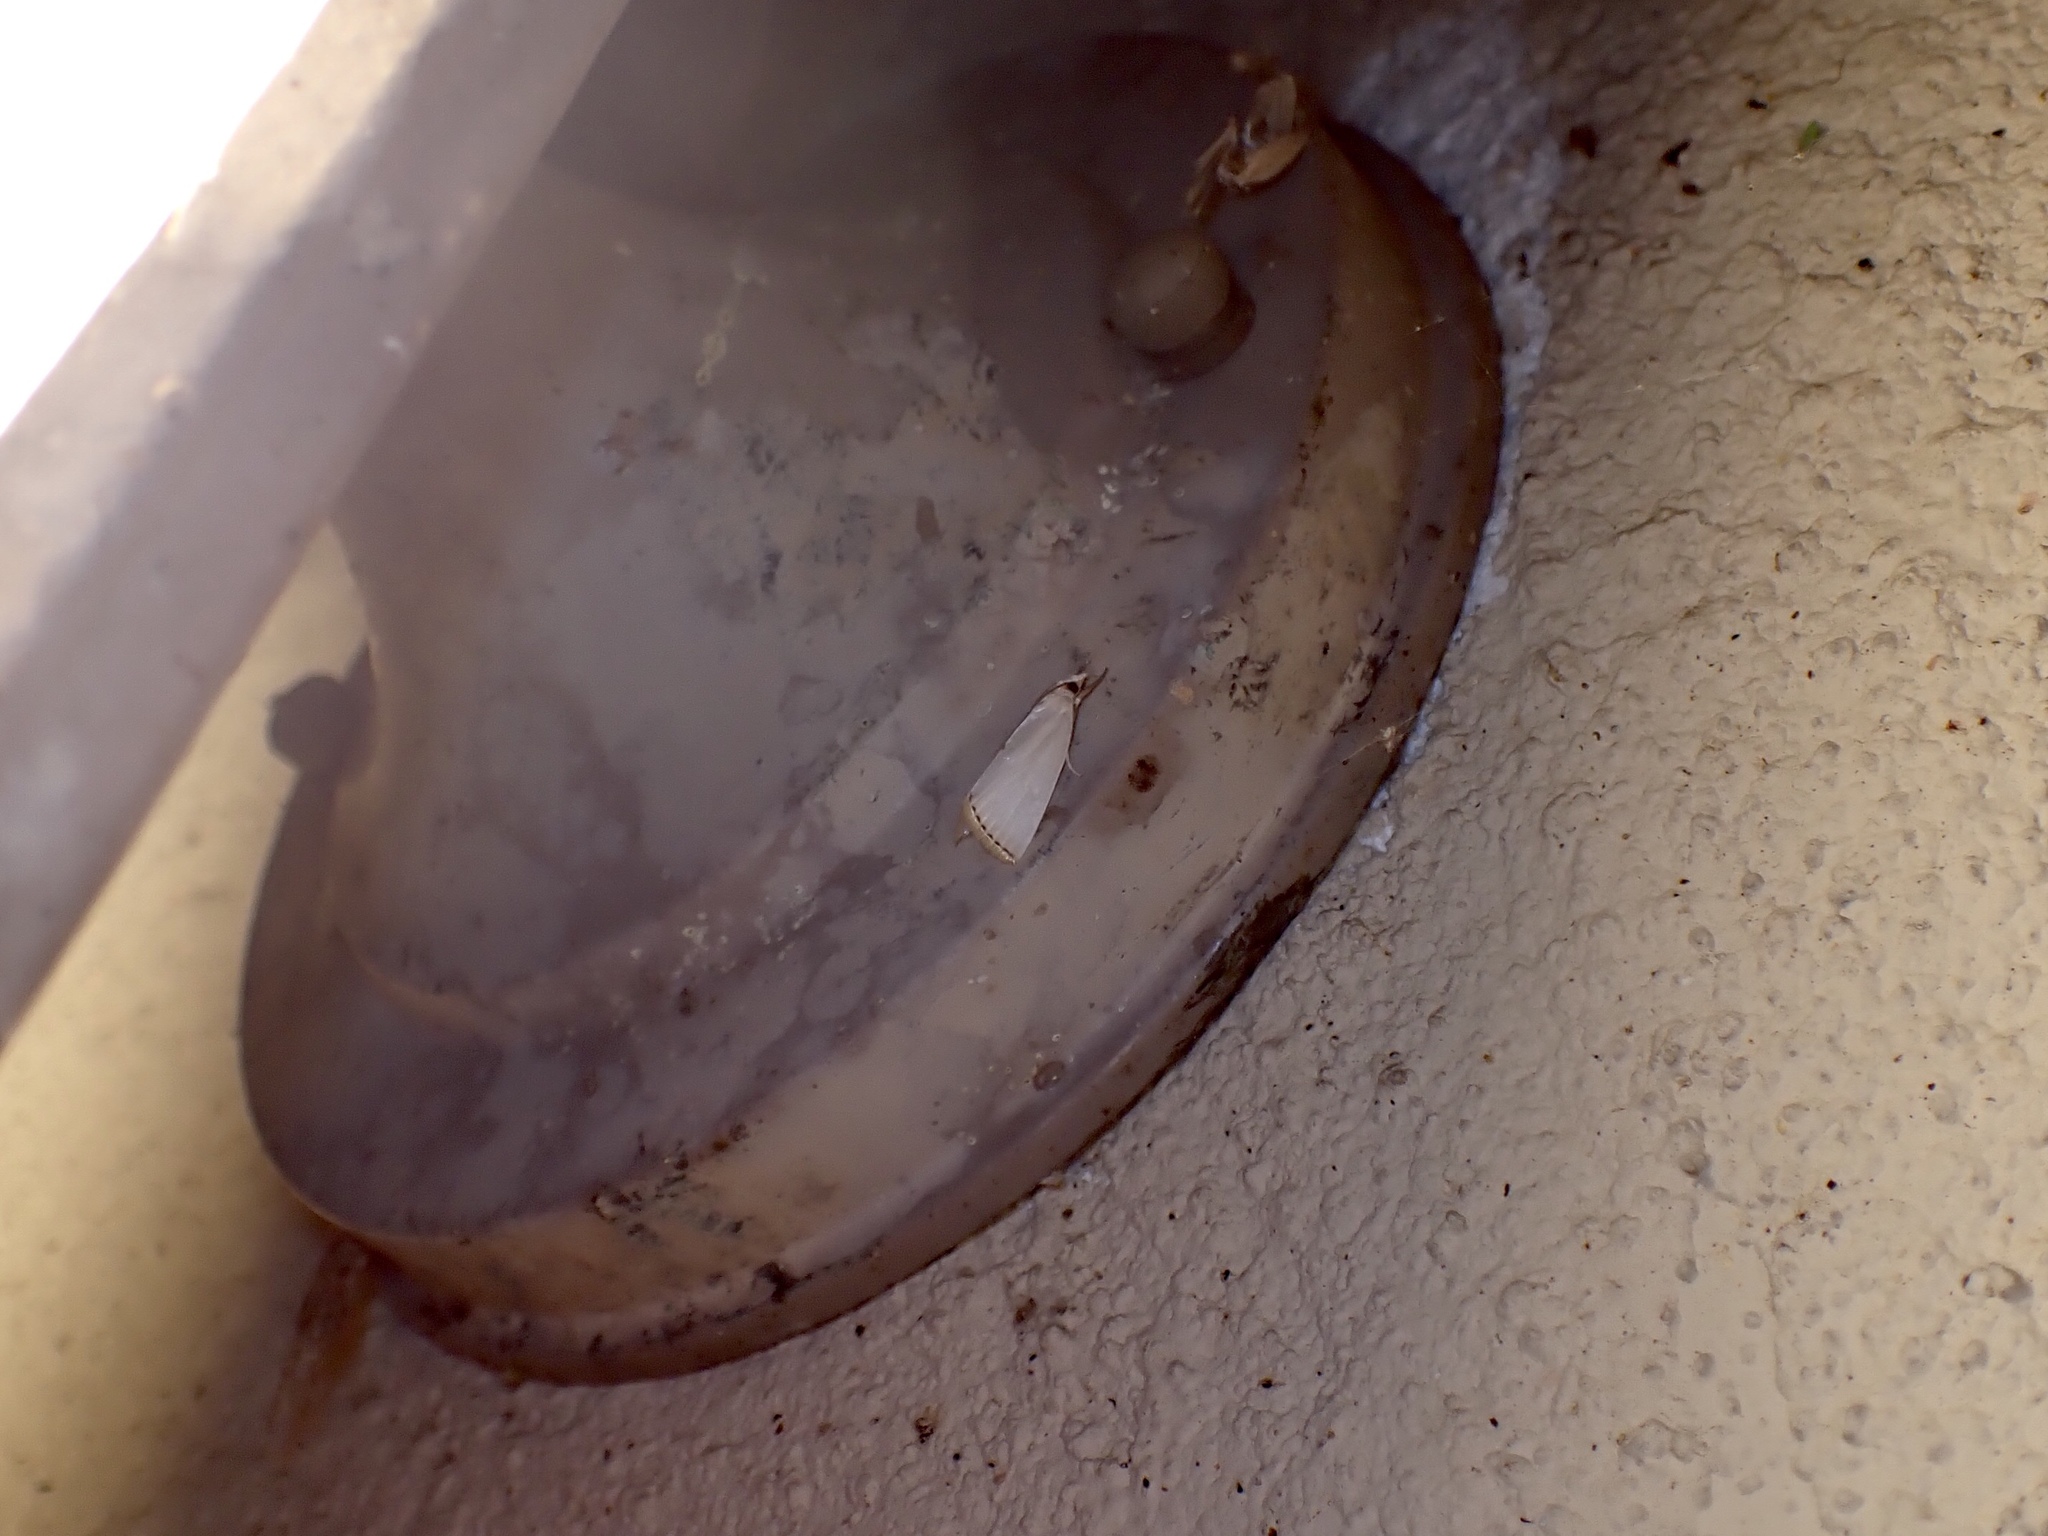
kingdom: Animalia
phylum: Arthropoda
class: Insecta
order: Lepidoptera
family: Crambidae
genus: Argyria
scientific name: Argyria nivalis
